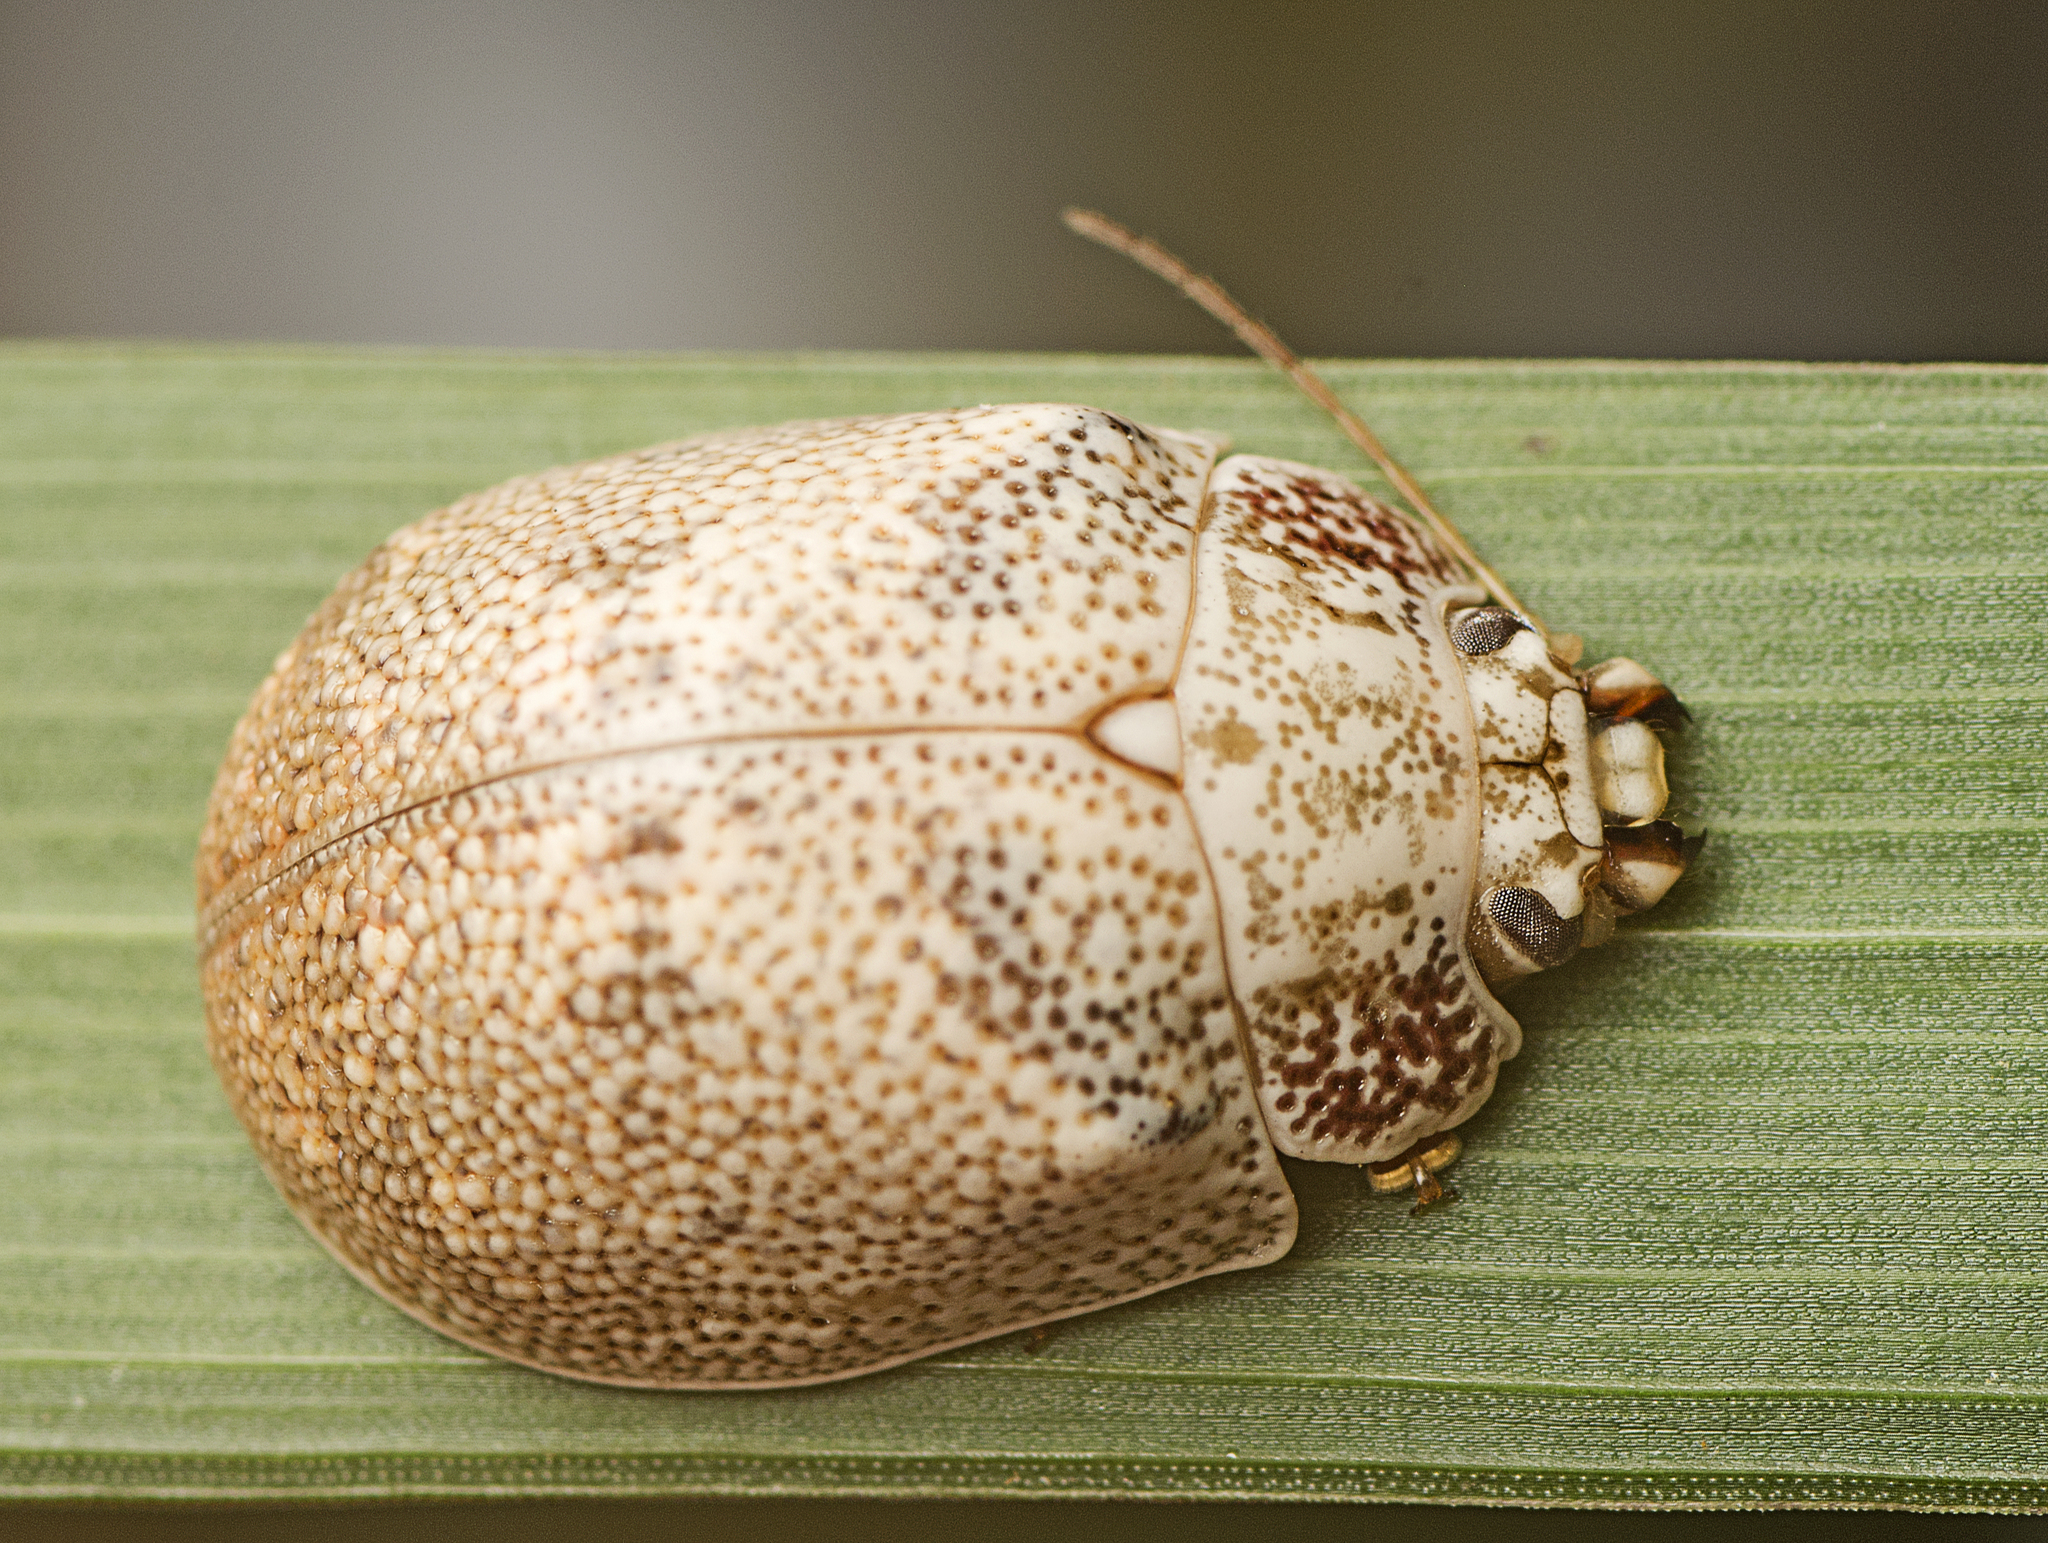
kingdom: Animalia
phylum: Arthropoda
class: Insecta
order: Coleoptera
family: Chrysomelidae
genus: Paropsis
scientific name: Paropsis charybdis
